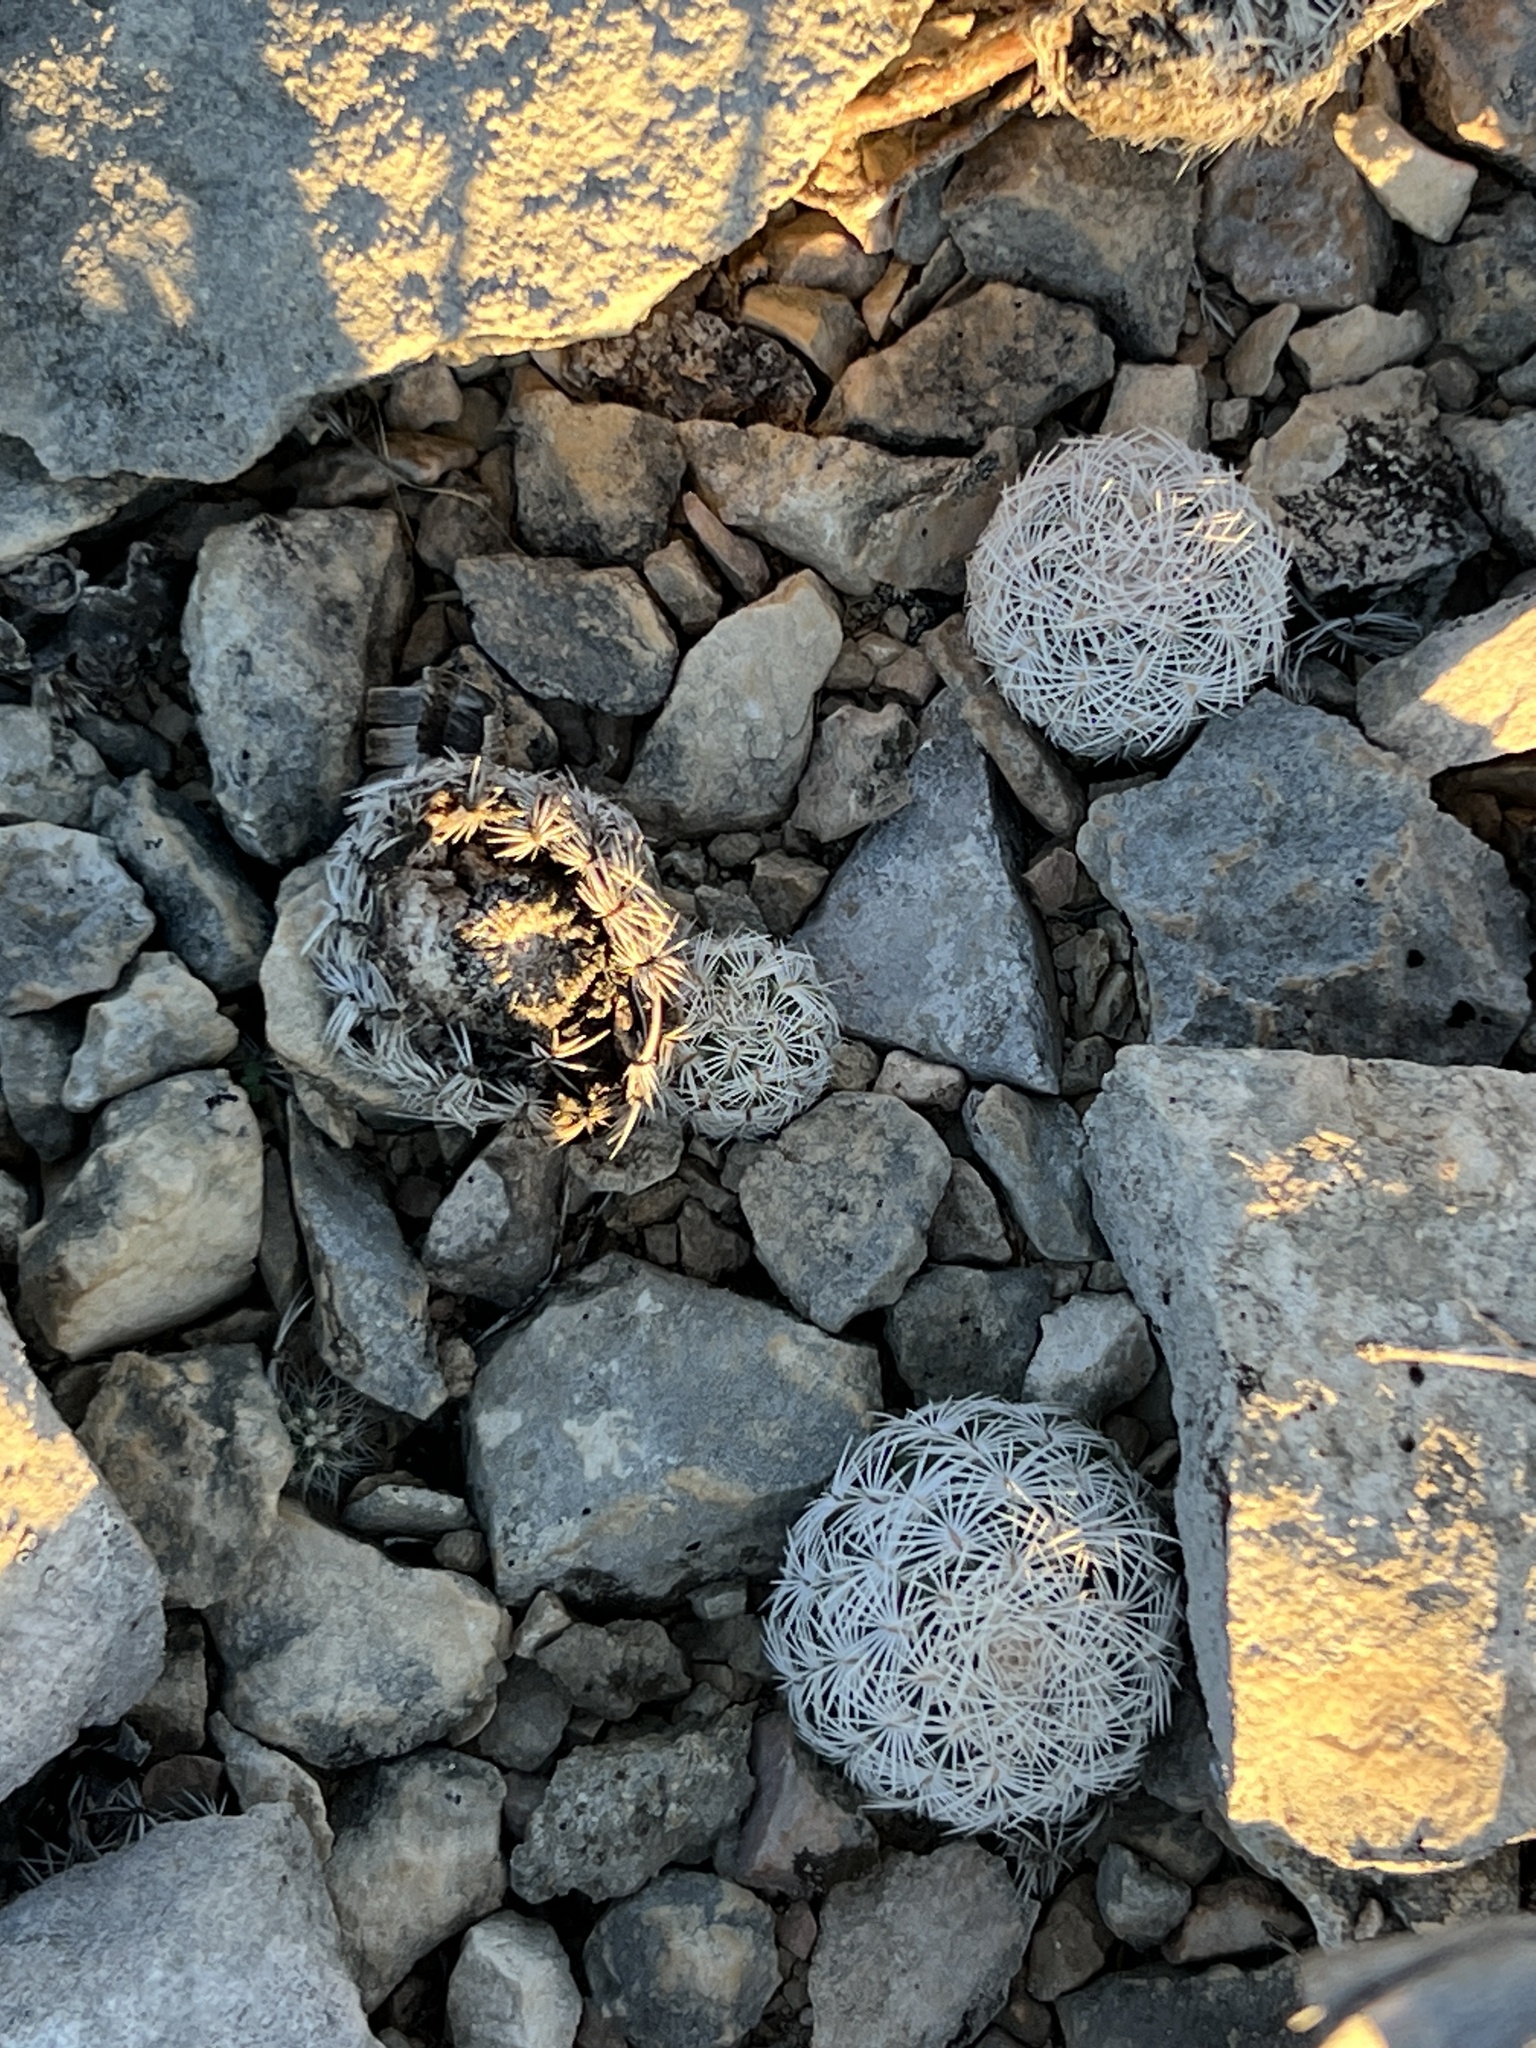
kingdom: Plantae
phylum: Tracheophyta
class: Magnoliopsida
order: Caryophyllales
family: Cactaceae
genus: Echinocereus
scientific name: Echinocereus reichenbachii
